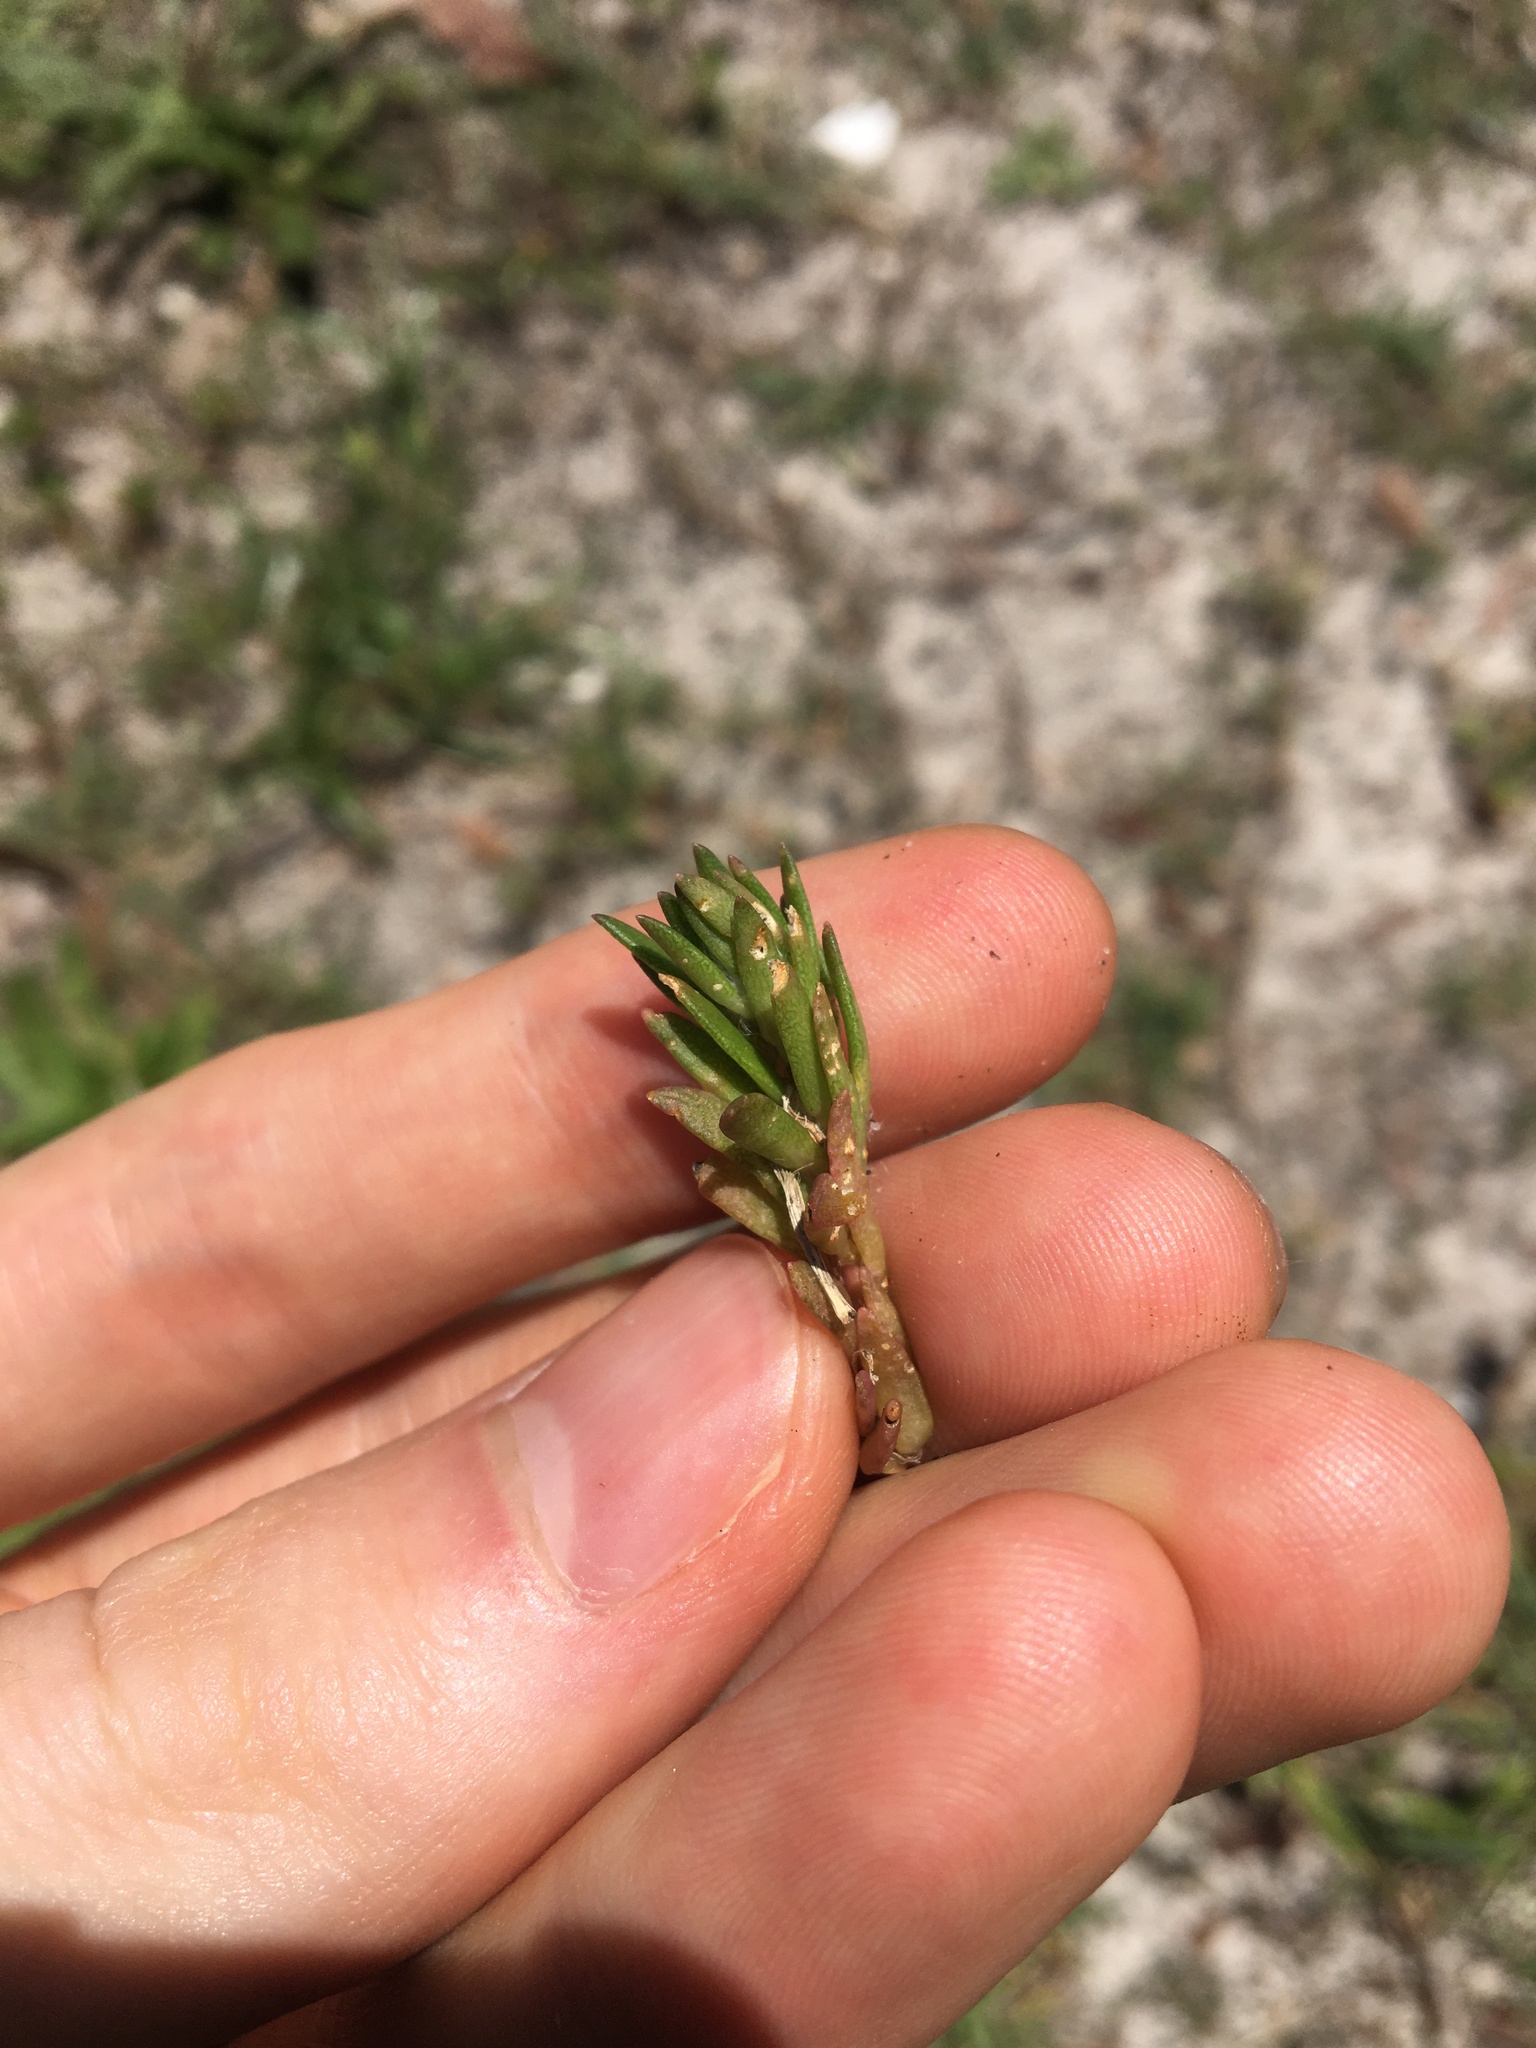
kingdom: Plantae
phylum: Tracheophyta
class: Magnoliopsida
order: Caryophyllales
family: Portulacaceae
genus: Portulaca
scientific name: Portulaca pilosa
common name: Kiss me quick
